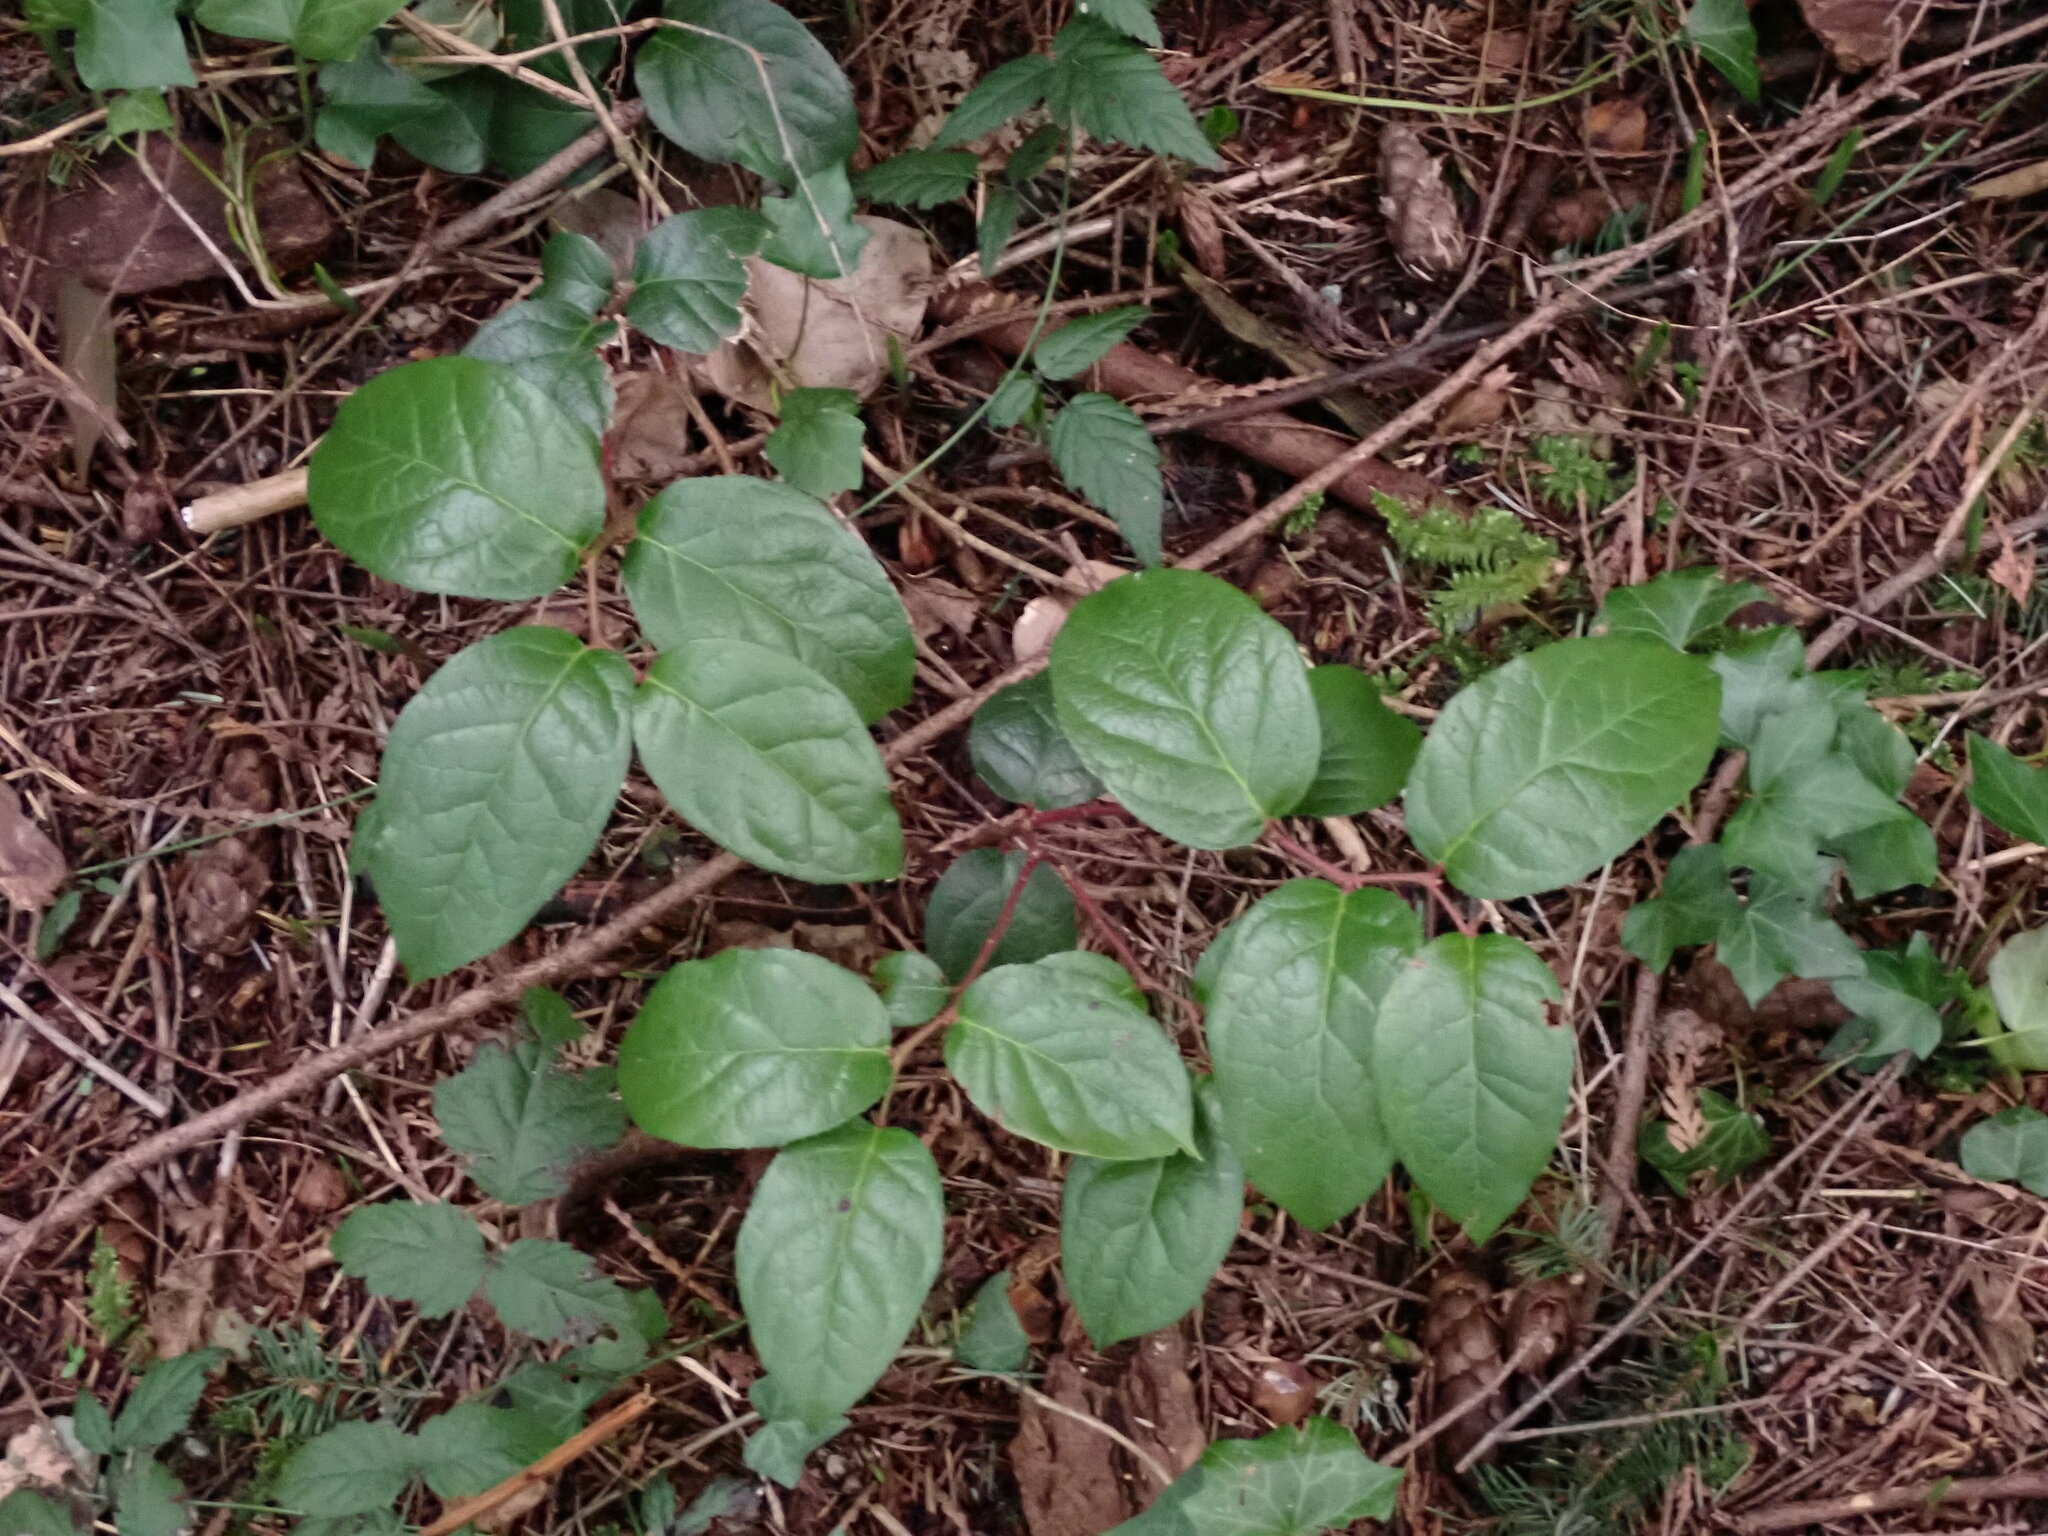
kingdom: Plantae
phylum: Tracheophyta
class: Magnoliopsida
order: Ericales
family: Ericaceae
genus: Gaultheria
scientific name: Gaultheria shallon
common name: Shallon
